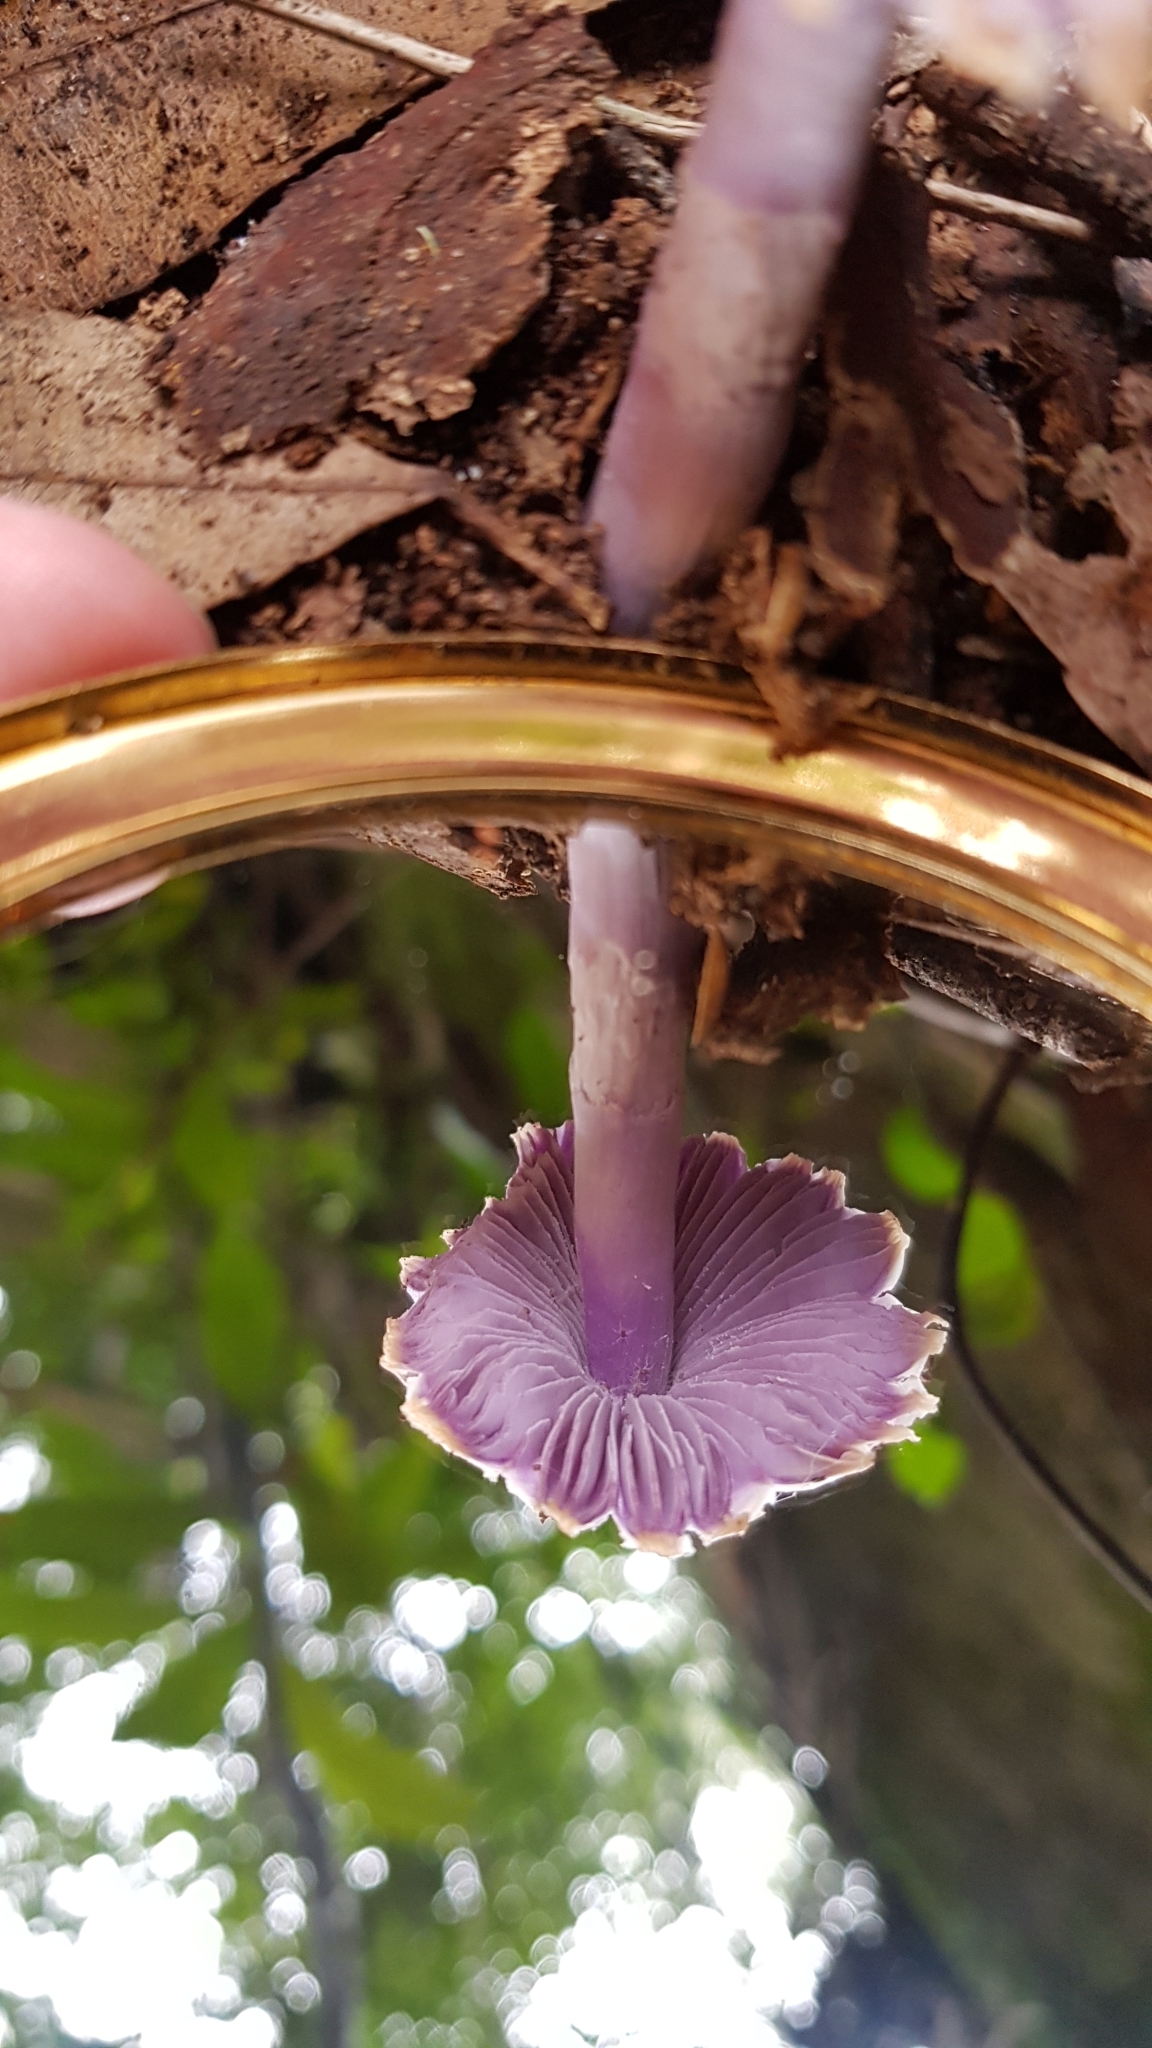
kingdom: Fungi
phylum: Basidiomycota
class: Agaricomycetes
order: Agaricales
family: Hygrophoraceae
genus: Porpolomopsis
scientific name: Porpolomopsis lewelliniae
